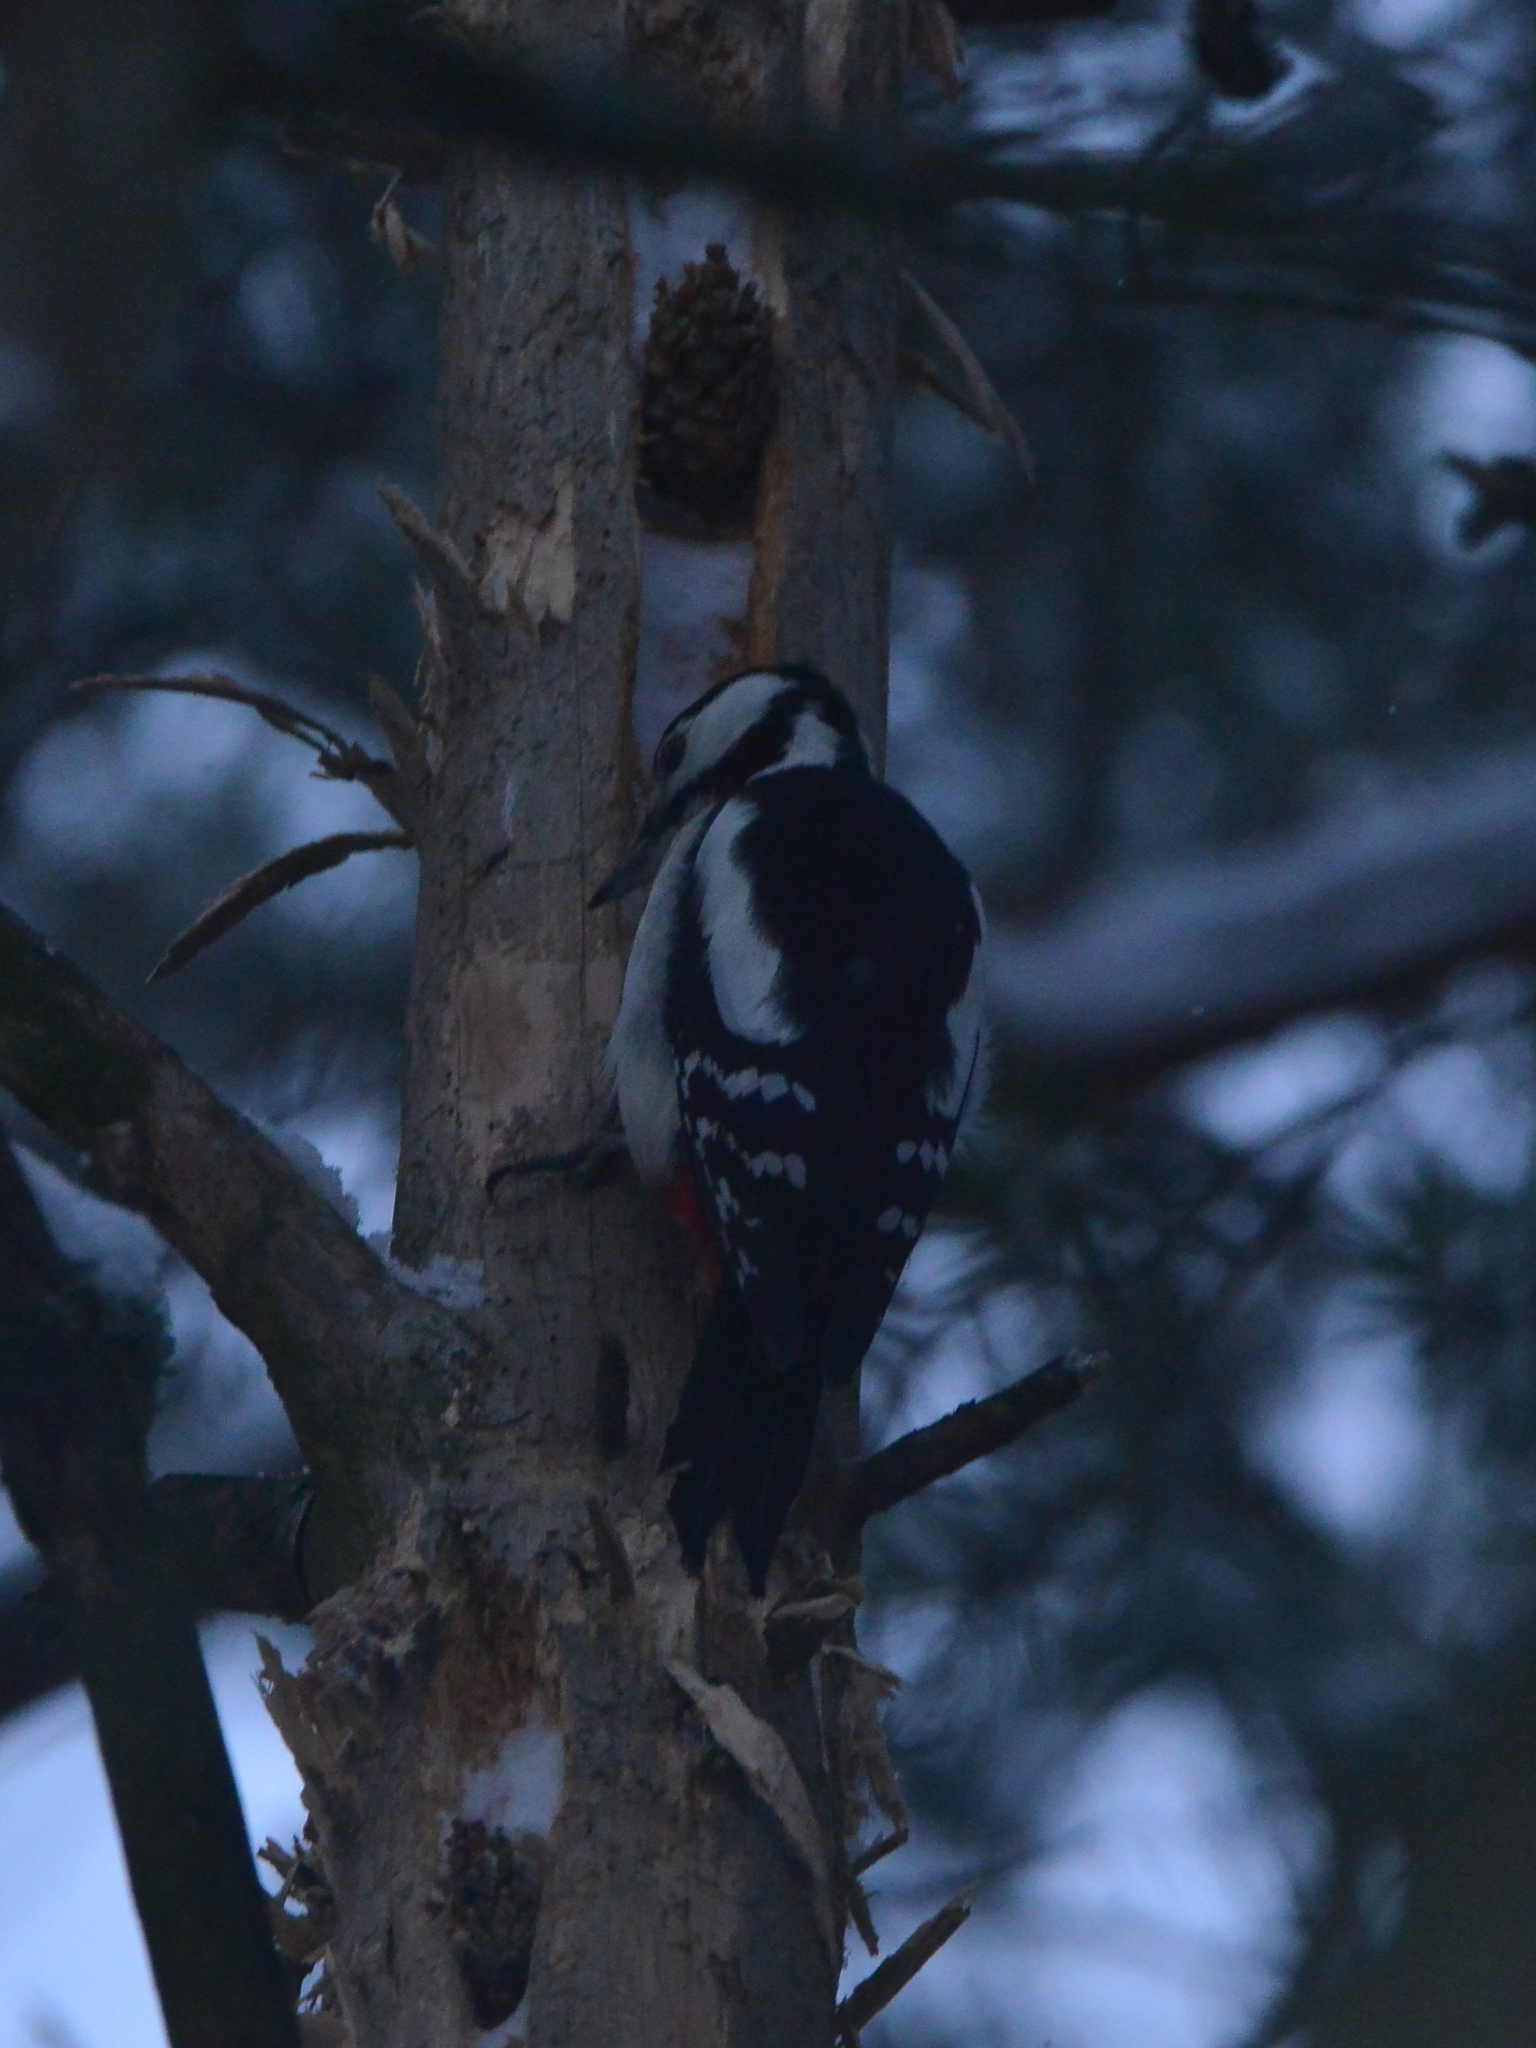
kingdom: Animalia
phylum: Chordata
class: Aves
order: Piciformes
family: Picidae
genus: Dendrocopos
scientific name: Dendrocopos major
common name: Great spotted woodpecker
